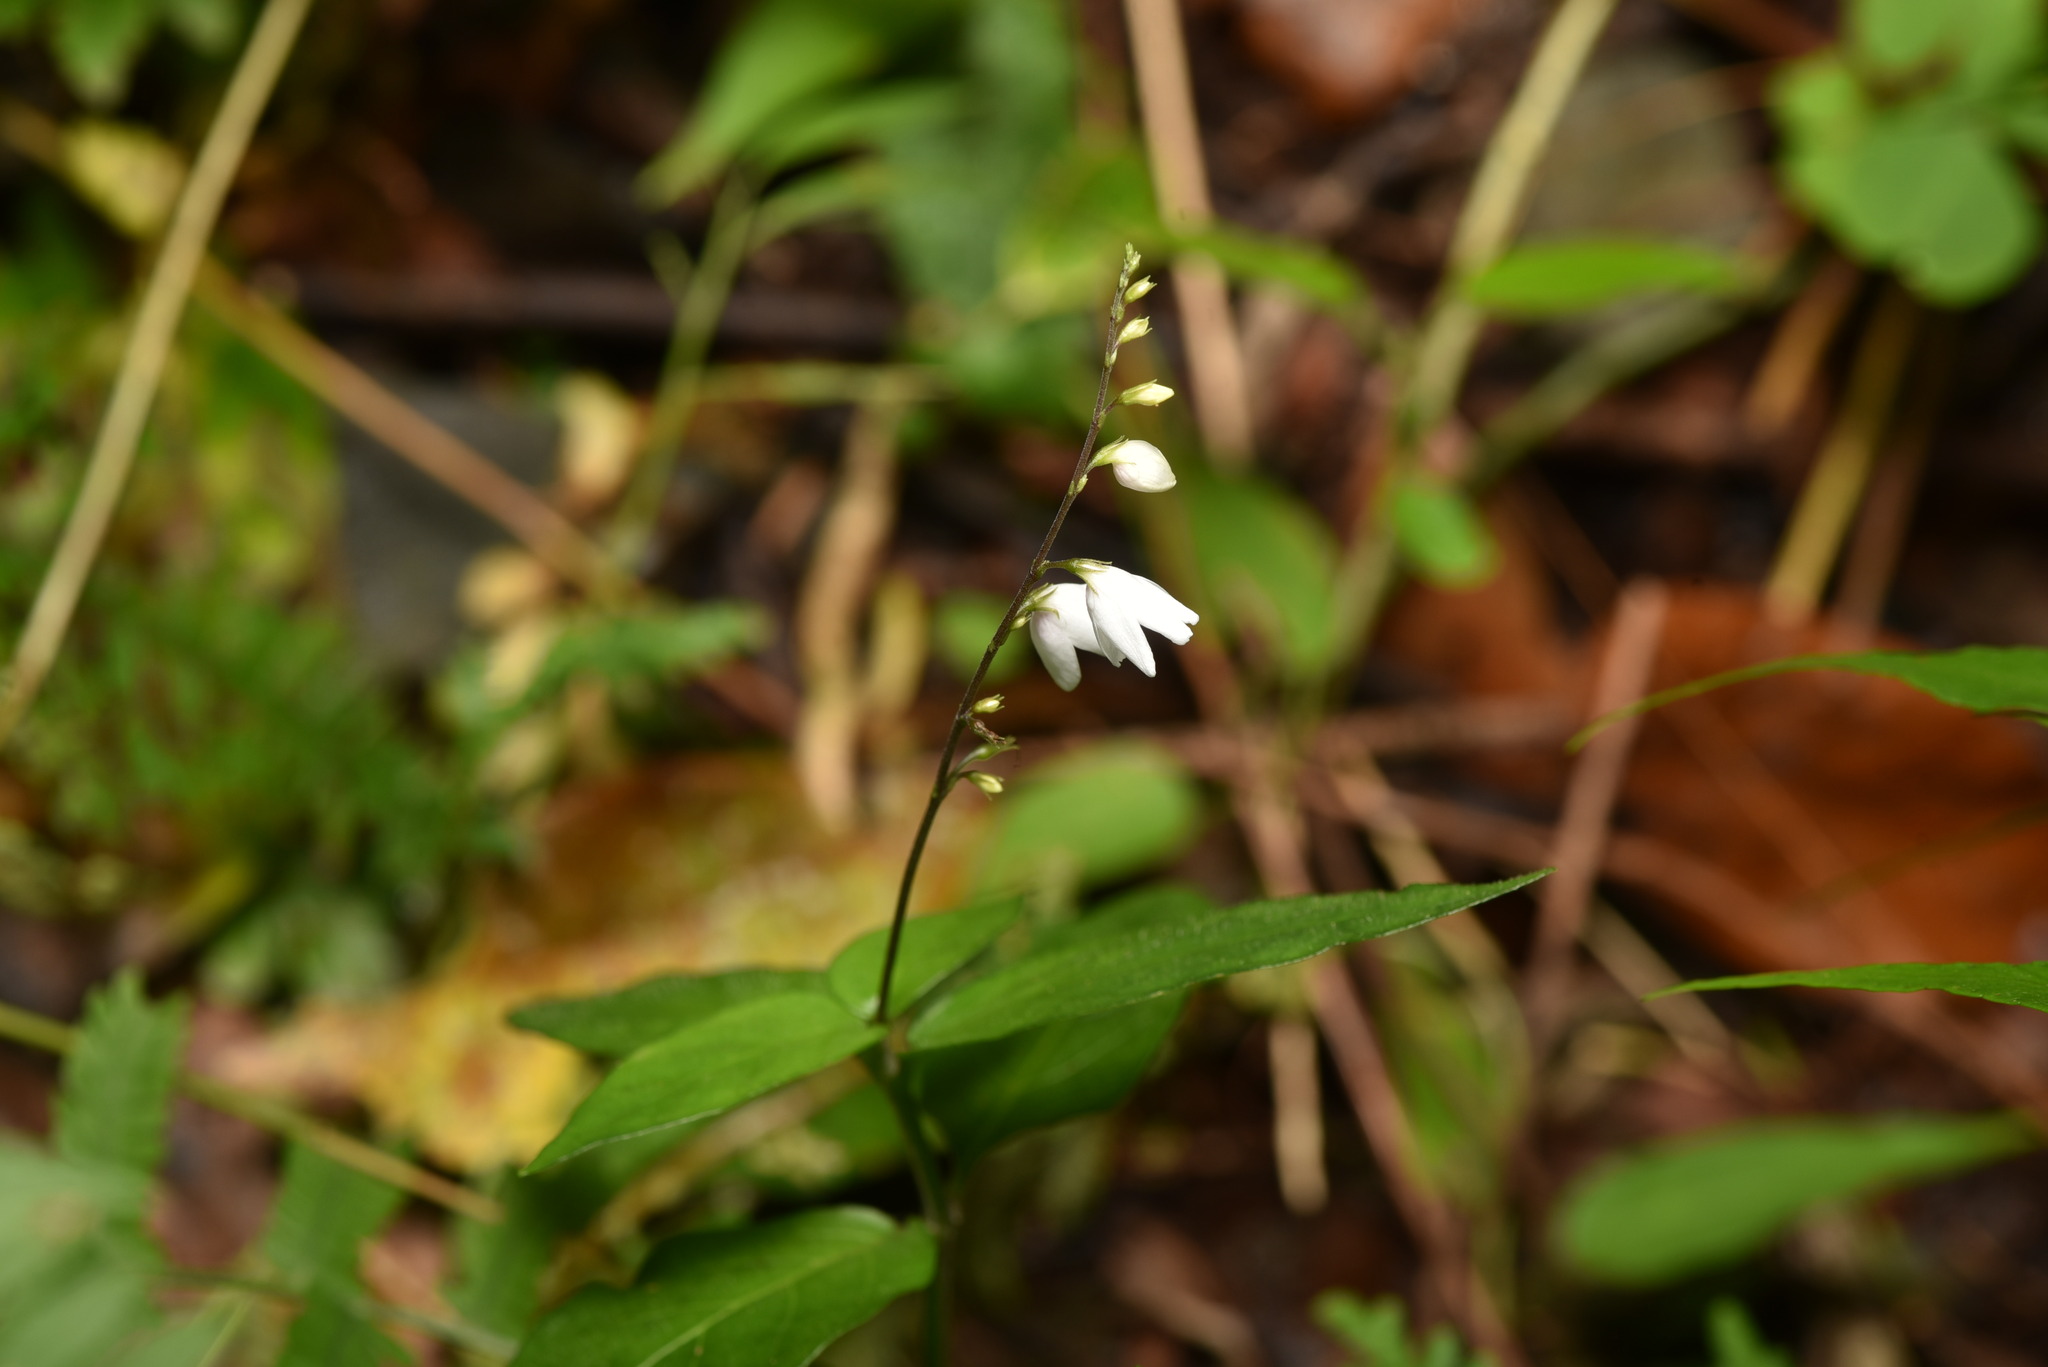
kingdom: Plantae
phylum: Tracheophyta
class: Magnoliopsida
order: Lamiales
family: Acanthaceae
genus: Codonacanthus
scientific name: Codonacanthus pauciflorus
